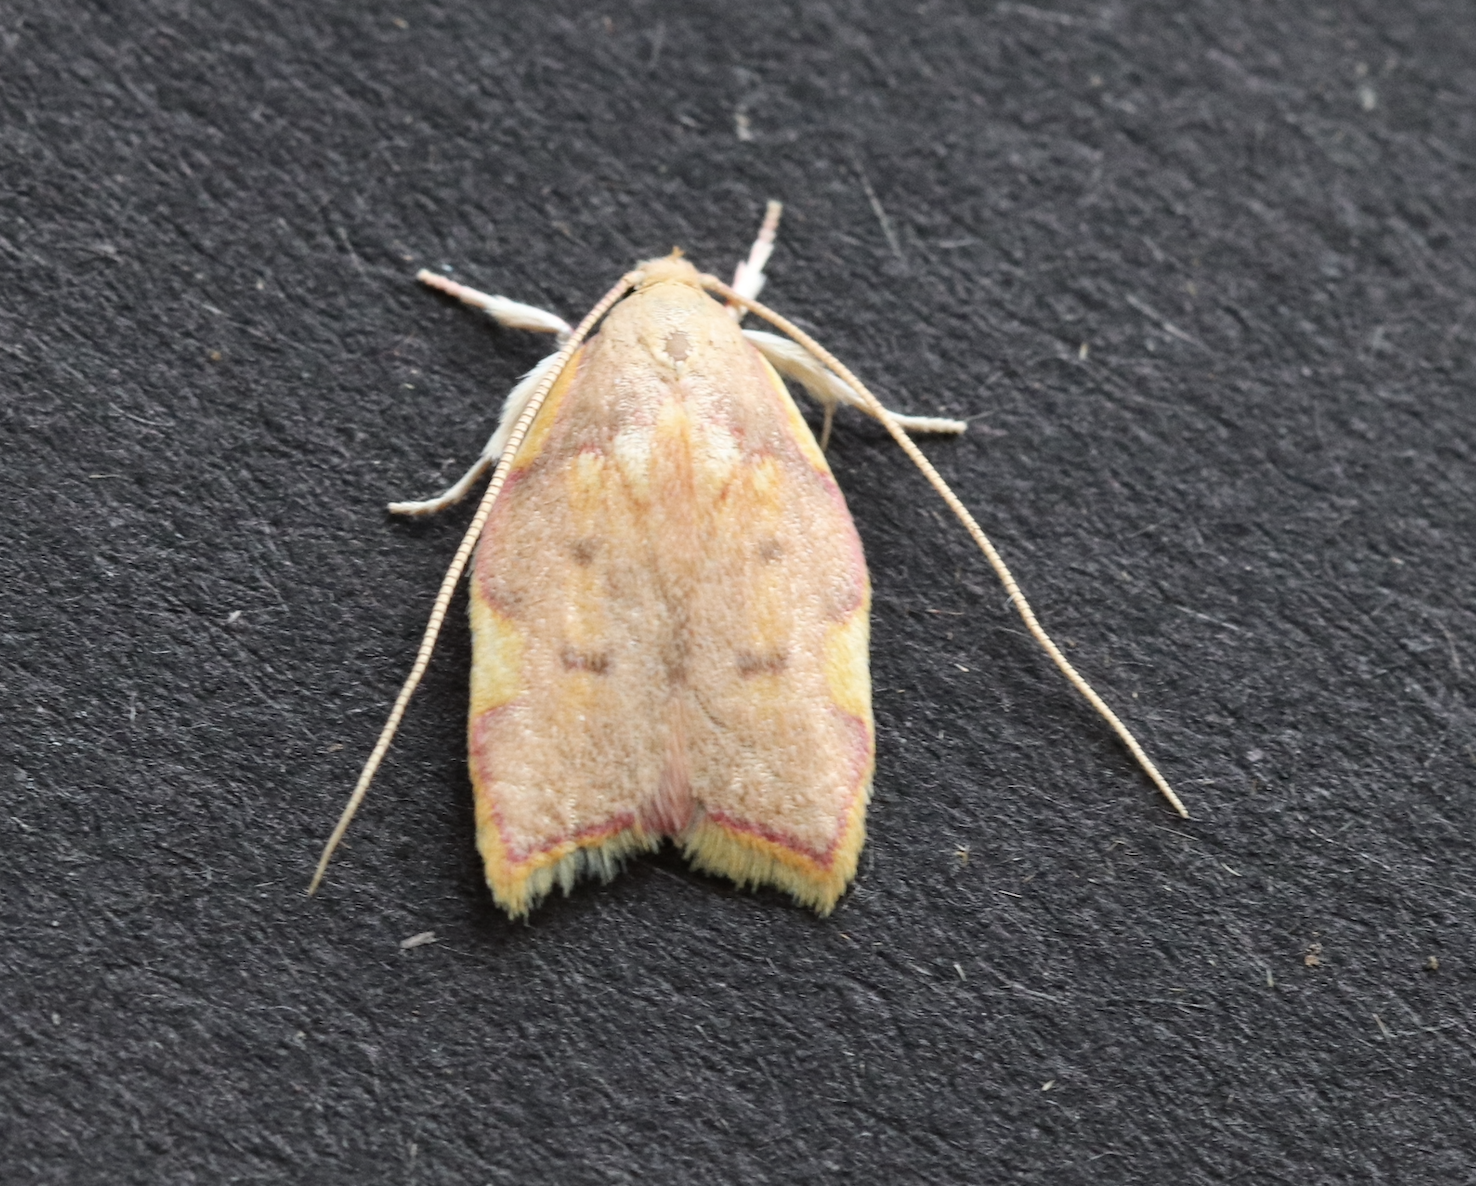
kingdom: Animalia
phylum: Arthropoda
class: Insecta
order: Lepidoptera
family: Peleopodidae
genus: Carcina
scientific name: Carcina quercana
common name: Moth
